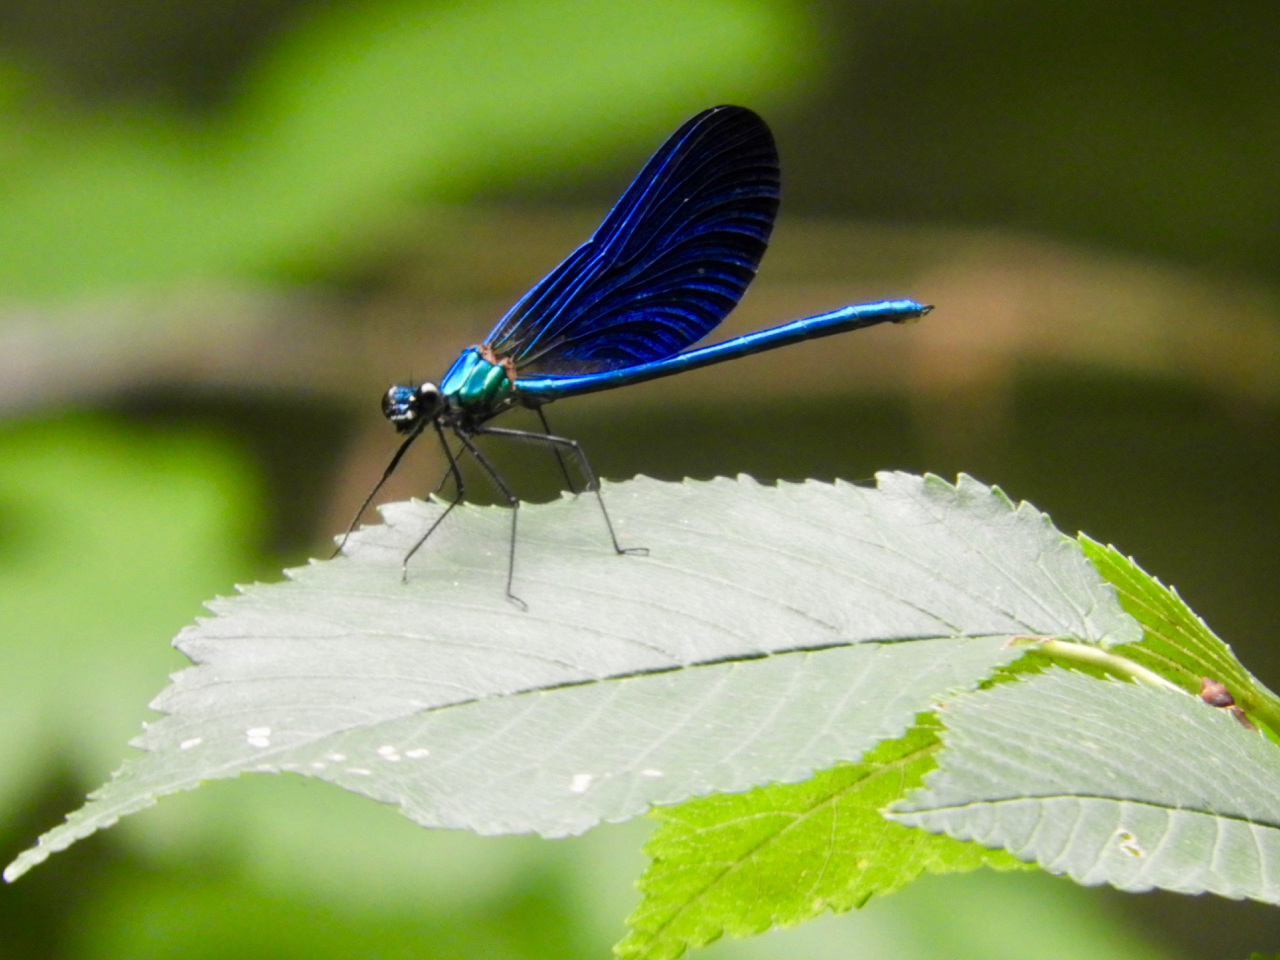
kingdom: Animalia
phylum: Arthropoda
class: Insecta
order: Odonata
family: Calopterygidae
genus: Calopteryx
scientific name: Calopteryx virgo
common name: Beautiful demoiselle
